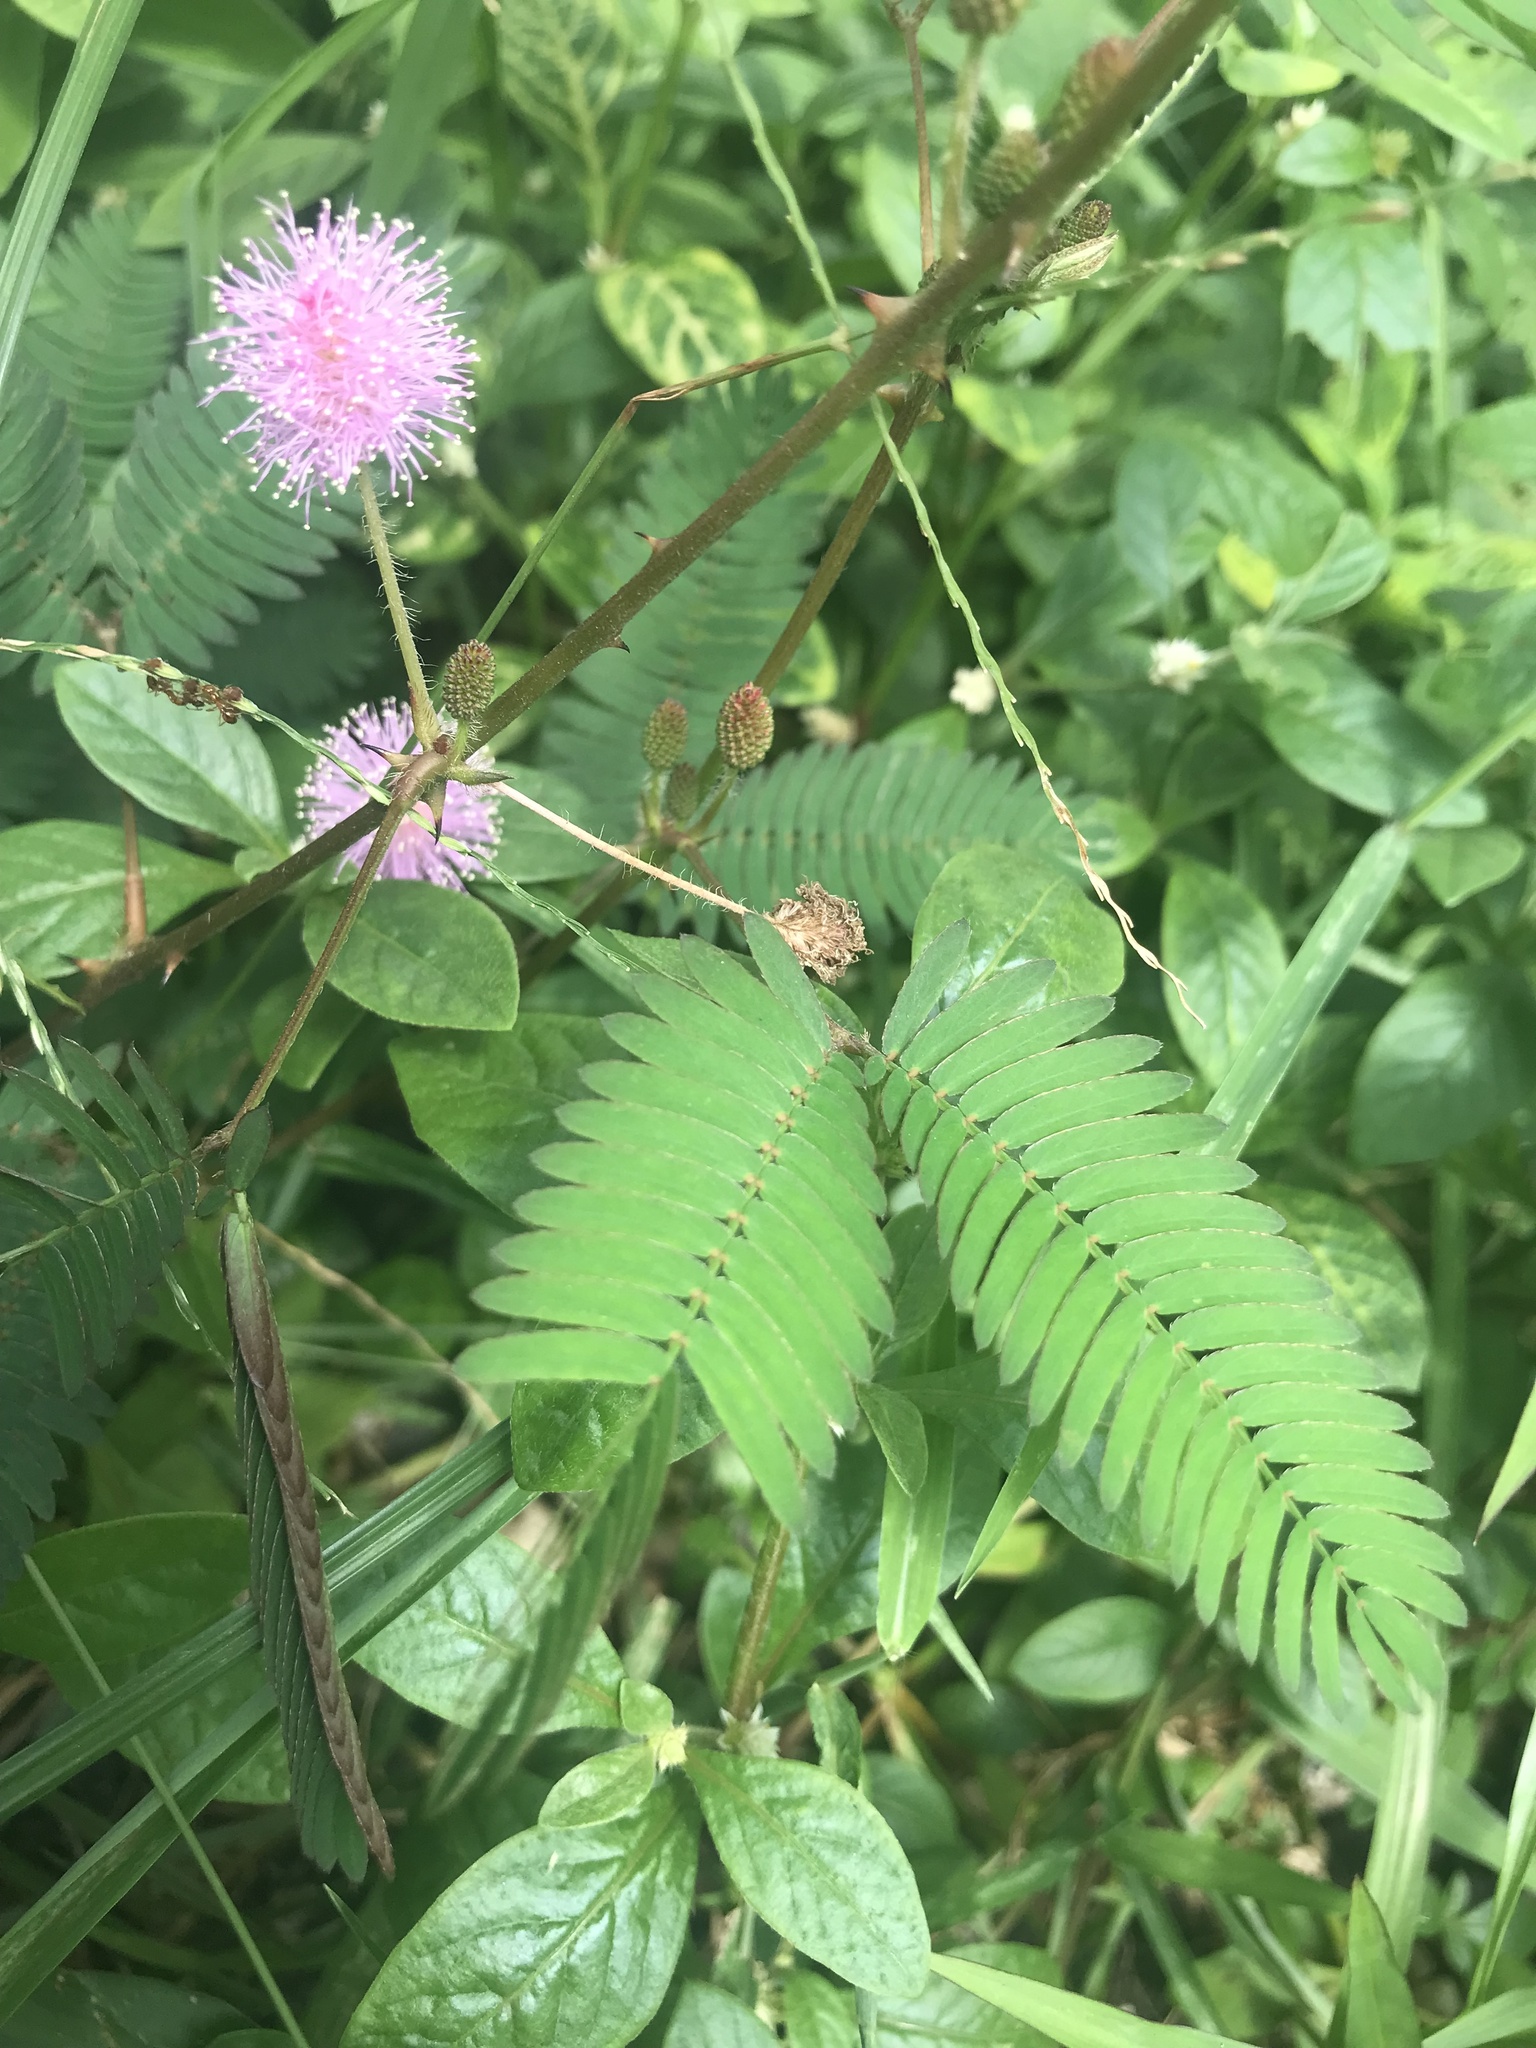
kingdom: Plantae
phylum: Tracheophyta
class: Magnoliopsida
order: Fabales
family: Fabaceae
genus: Mimosa
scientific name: Mimosa pudica
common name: Sensitive plant
